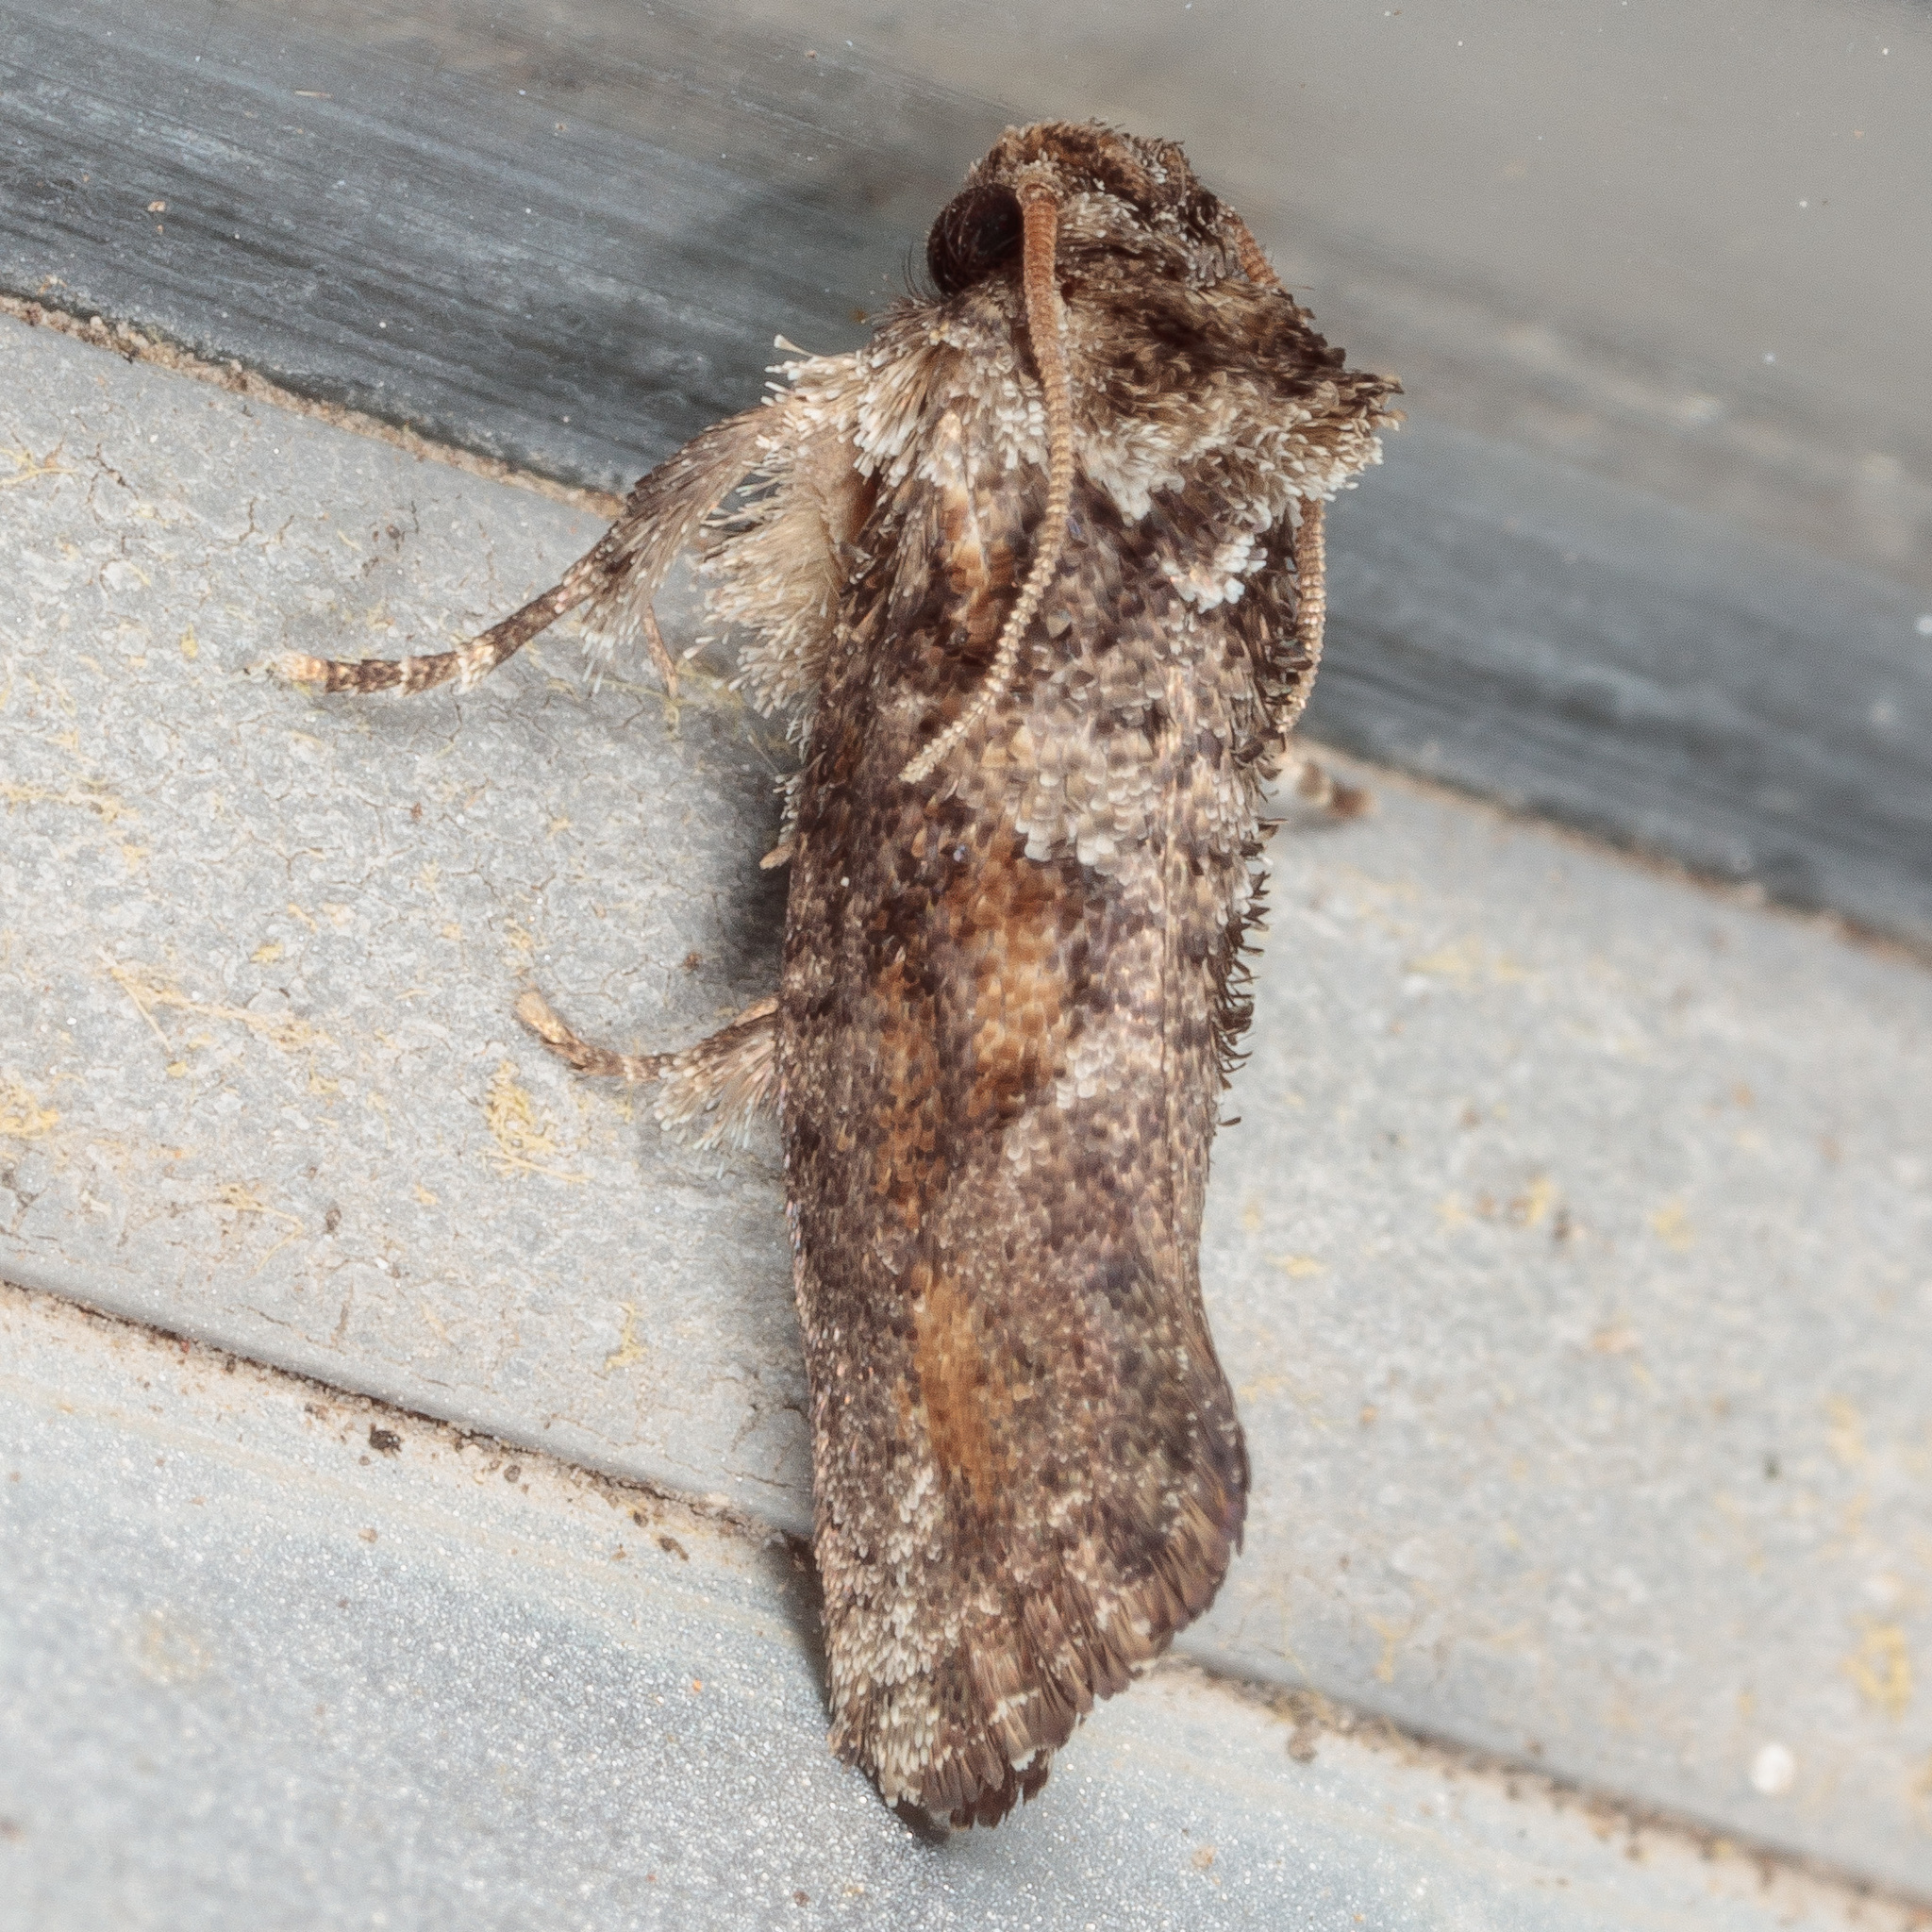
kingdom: Animalia
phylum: Arthropoda
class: Insecta
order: Lepidoptera
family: Tineidae
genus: Acrolophus
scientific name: Acrolophus piger
